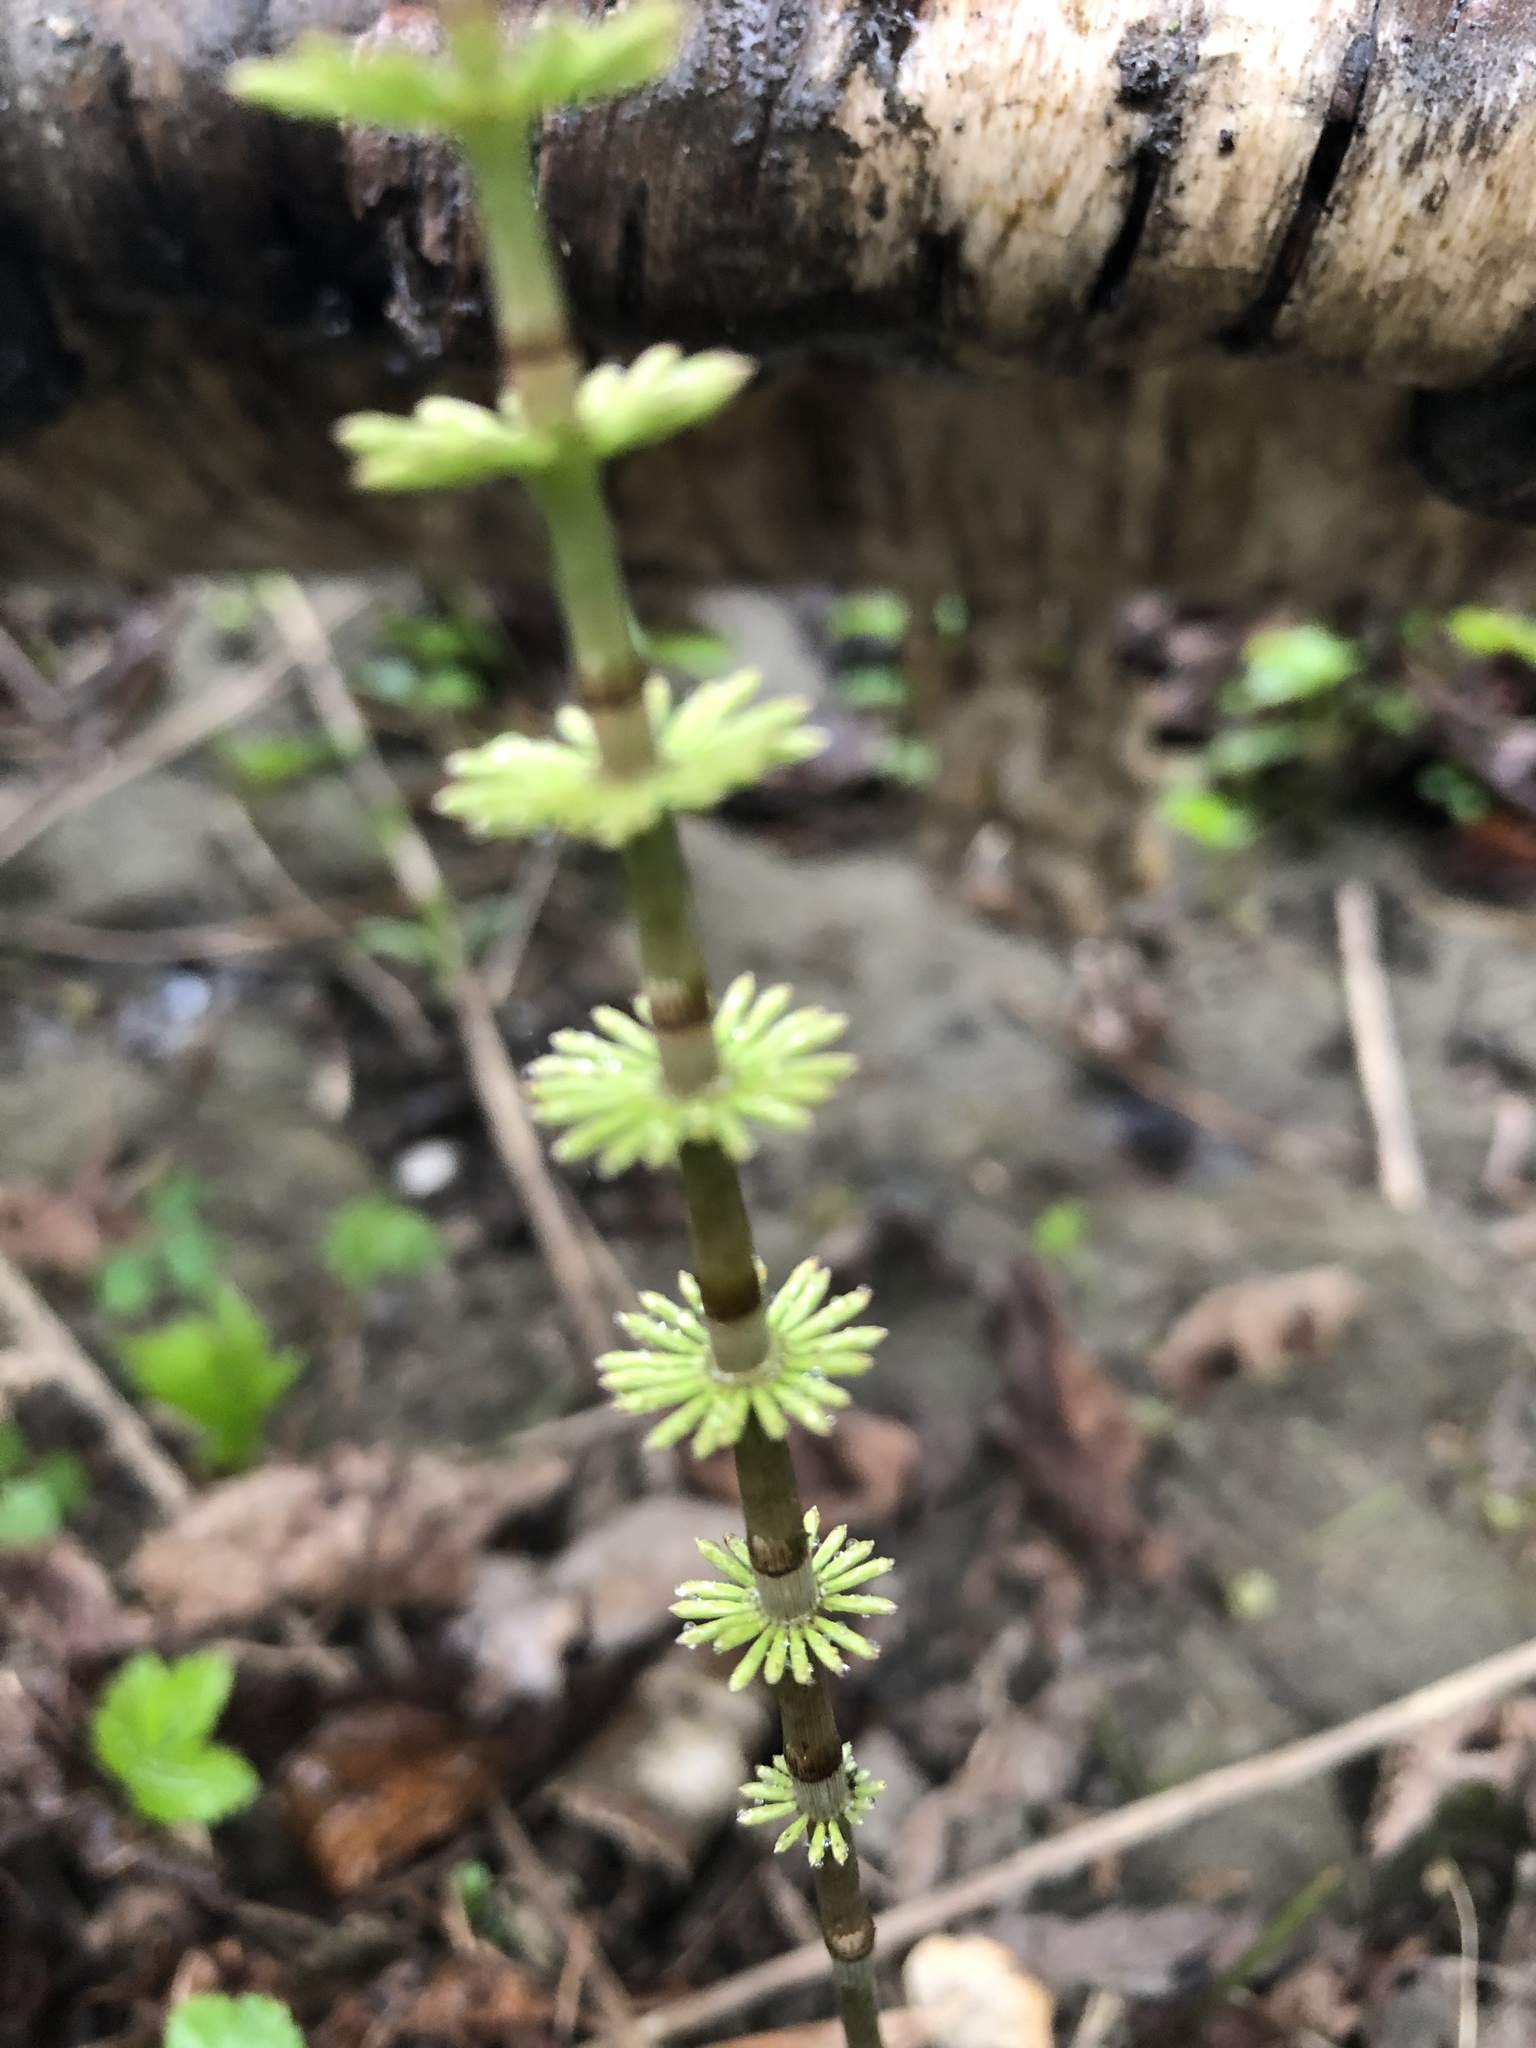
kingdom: Plantae
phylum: Tracheophyta
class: Polypodiopsida
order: Equisetales
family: Equisetaceae
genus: Equisetum
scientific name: Equisetum pratense
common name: Meadow horsetail
